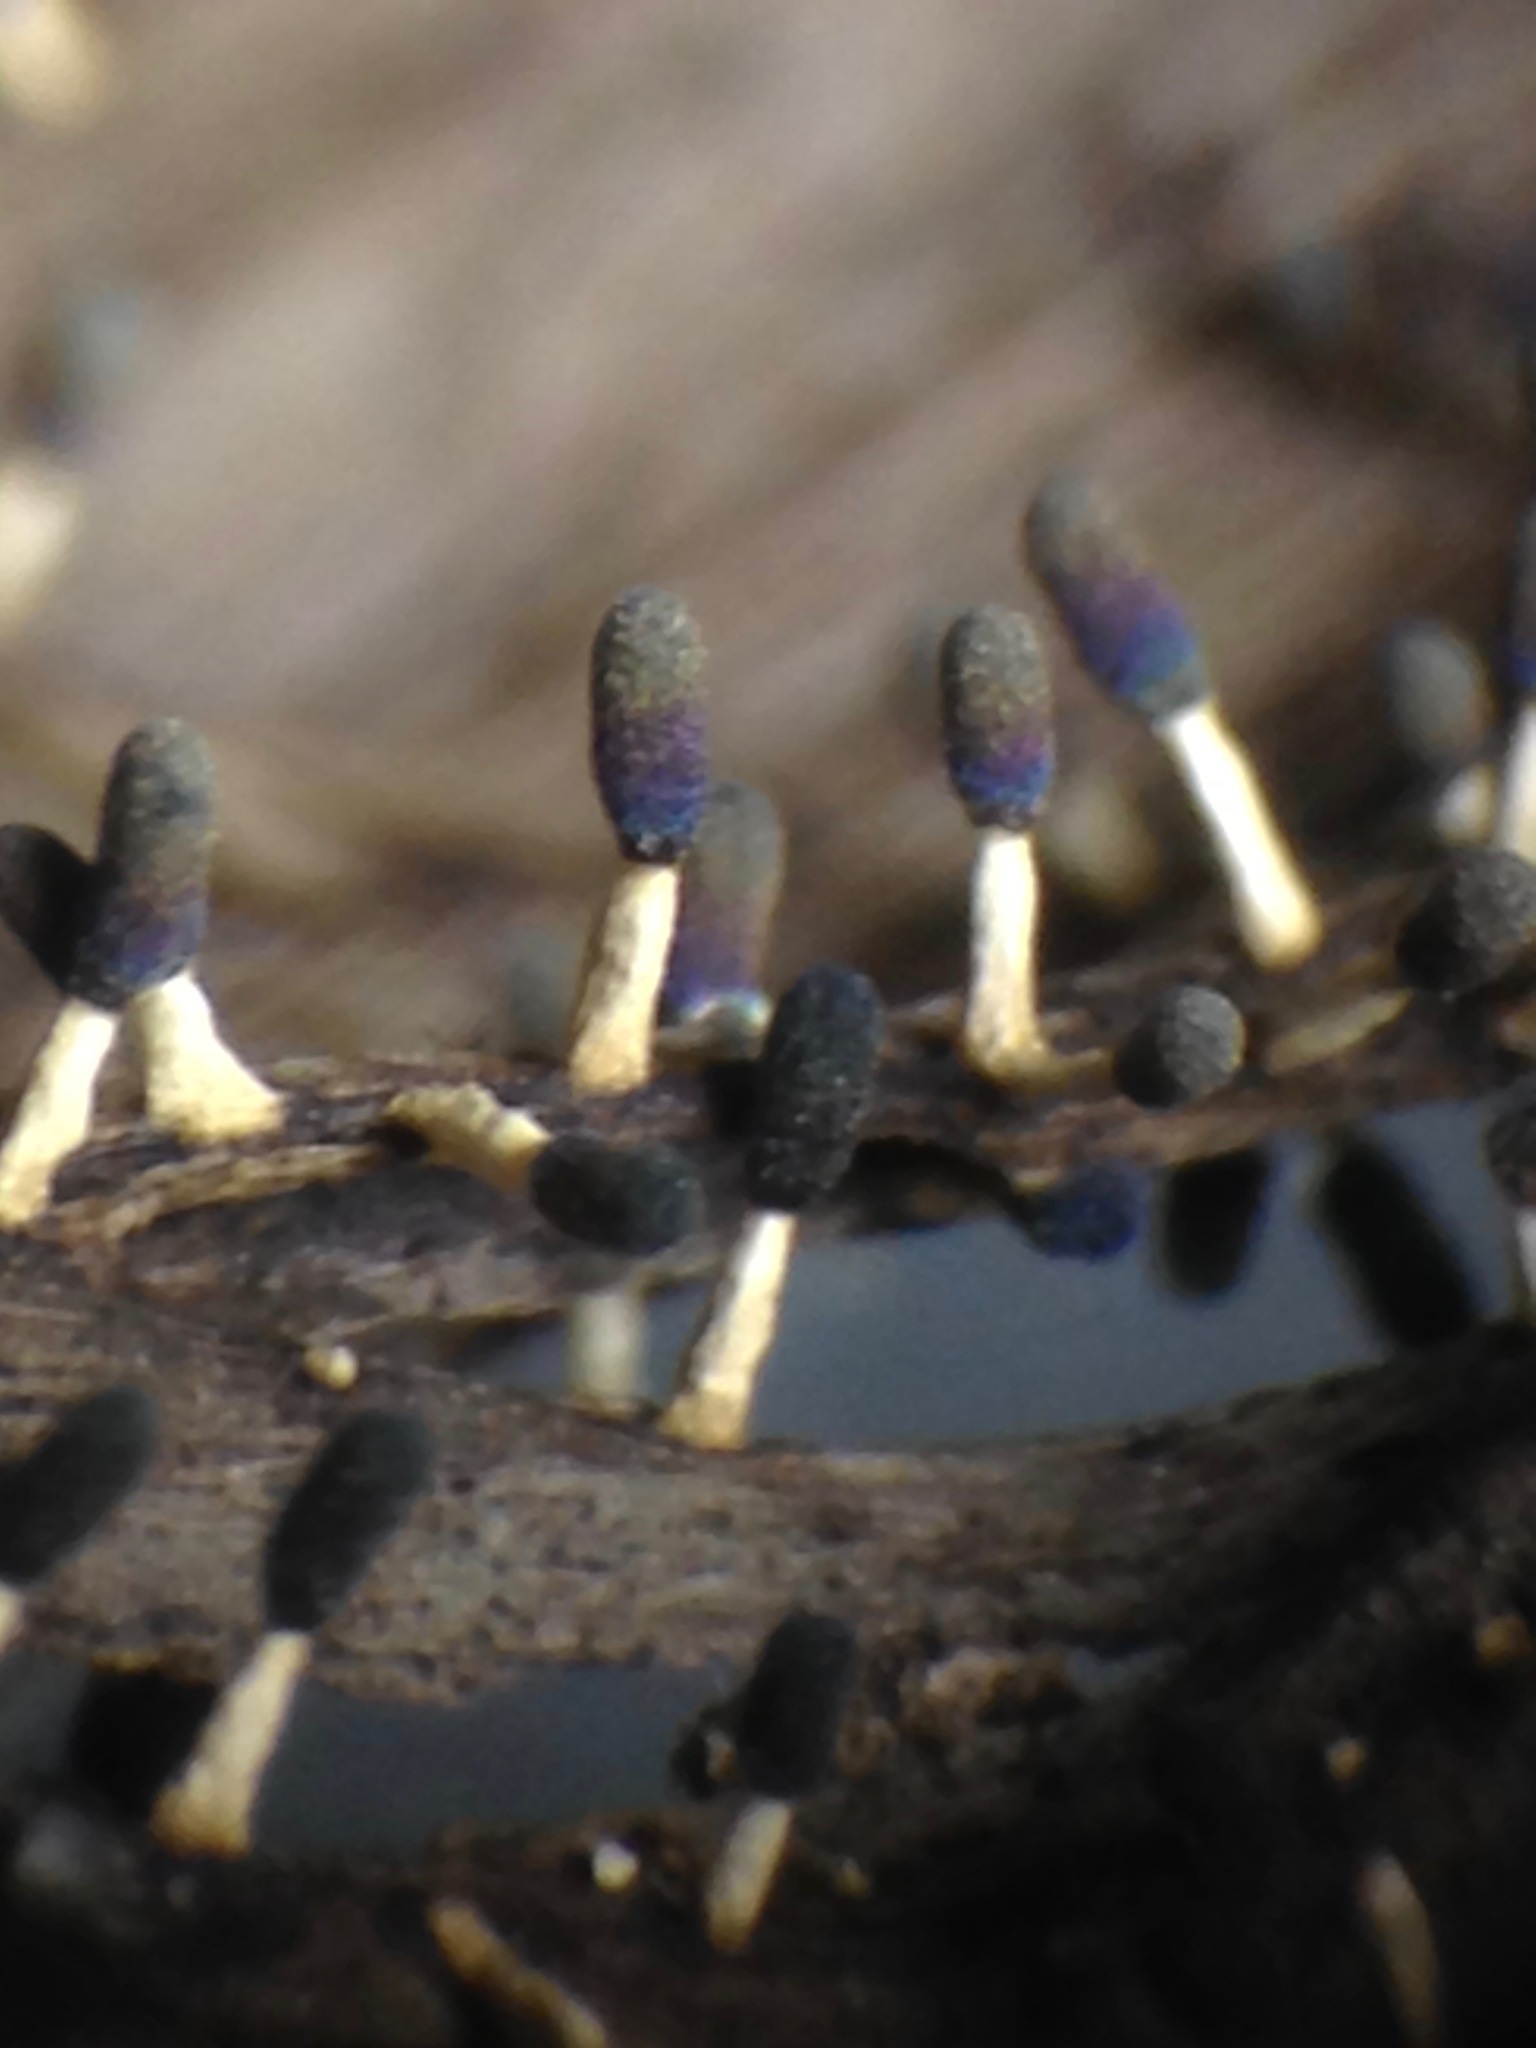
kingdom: Protozoa
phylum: Mycetozoa
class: Myxomycetes
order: Physarales
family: Didymiaceae
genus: Diachea
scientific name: Diachea leucopodia
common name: White-footed slime
